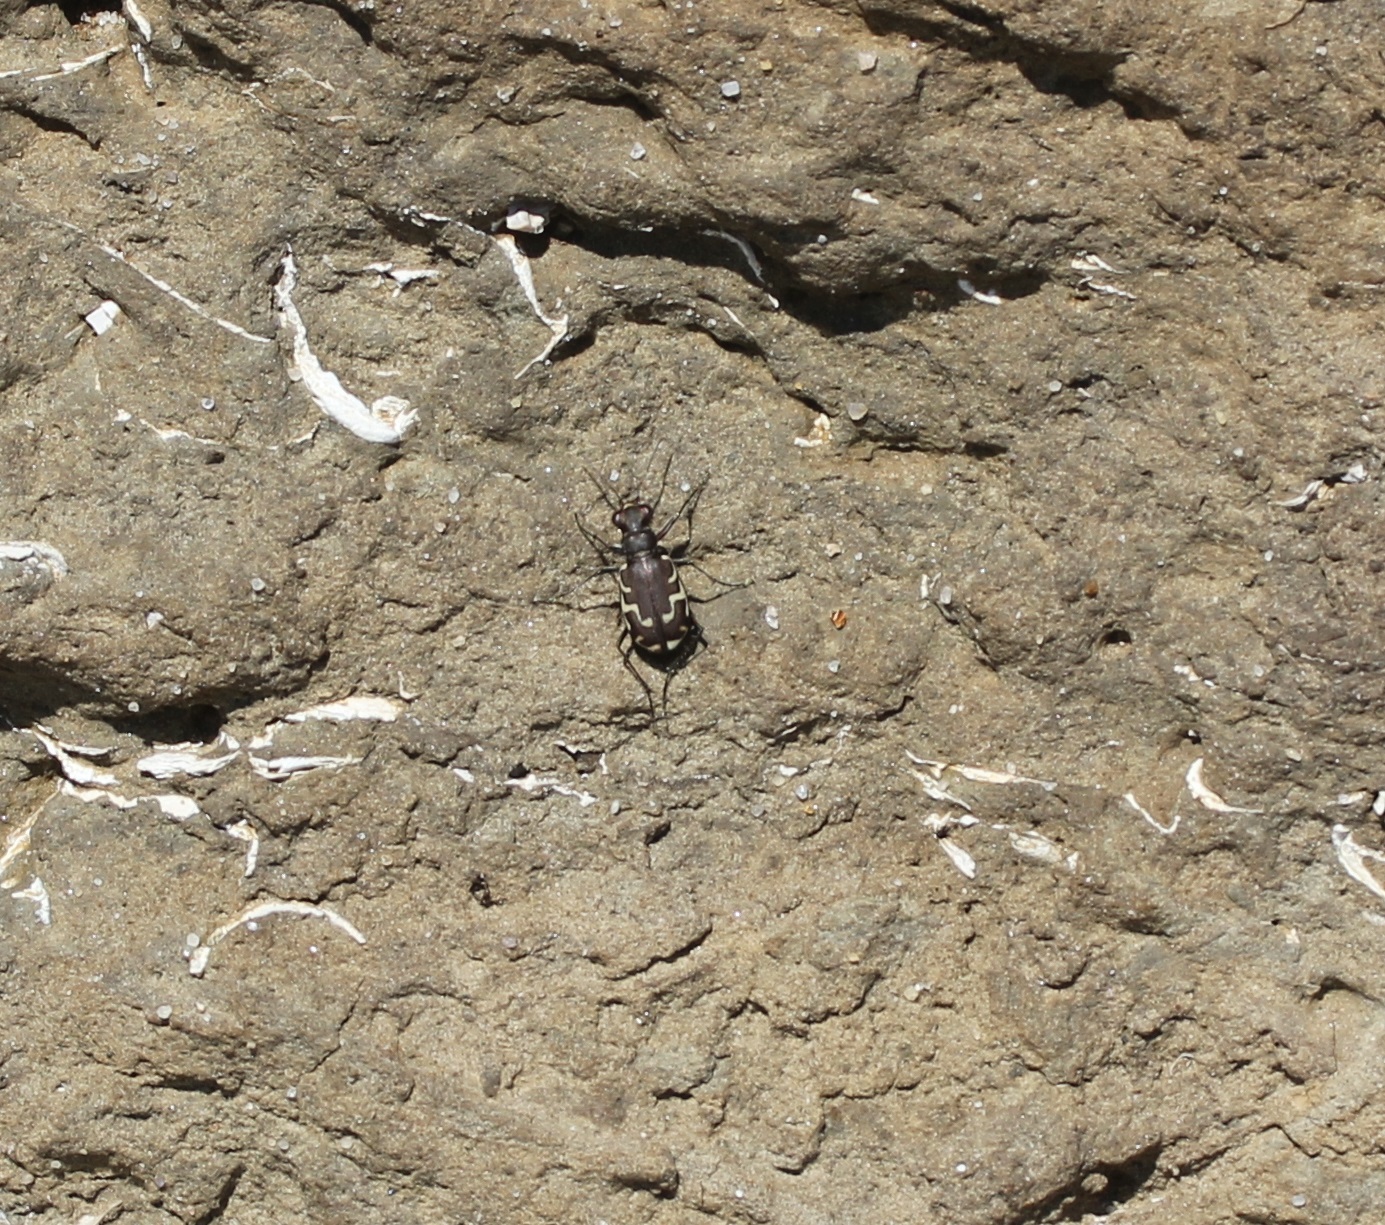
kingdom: Animalia
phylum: Arthropoda
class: Insecta
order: Coleoptera
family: Carabidae
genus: Cicindela
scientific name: Cicindela repanda
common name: Bronzed tiger beetle
